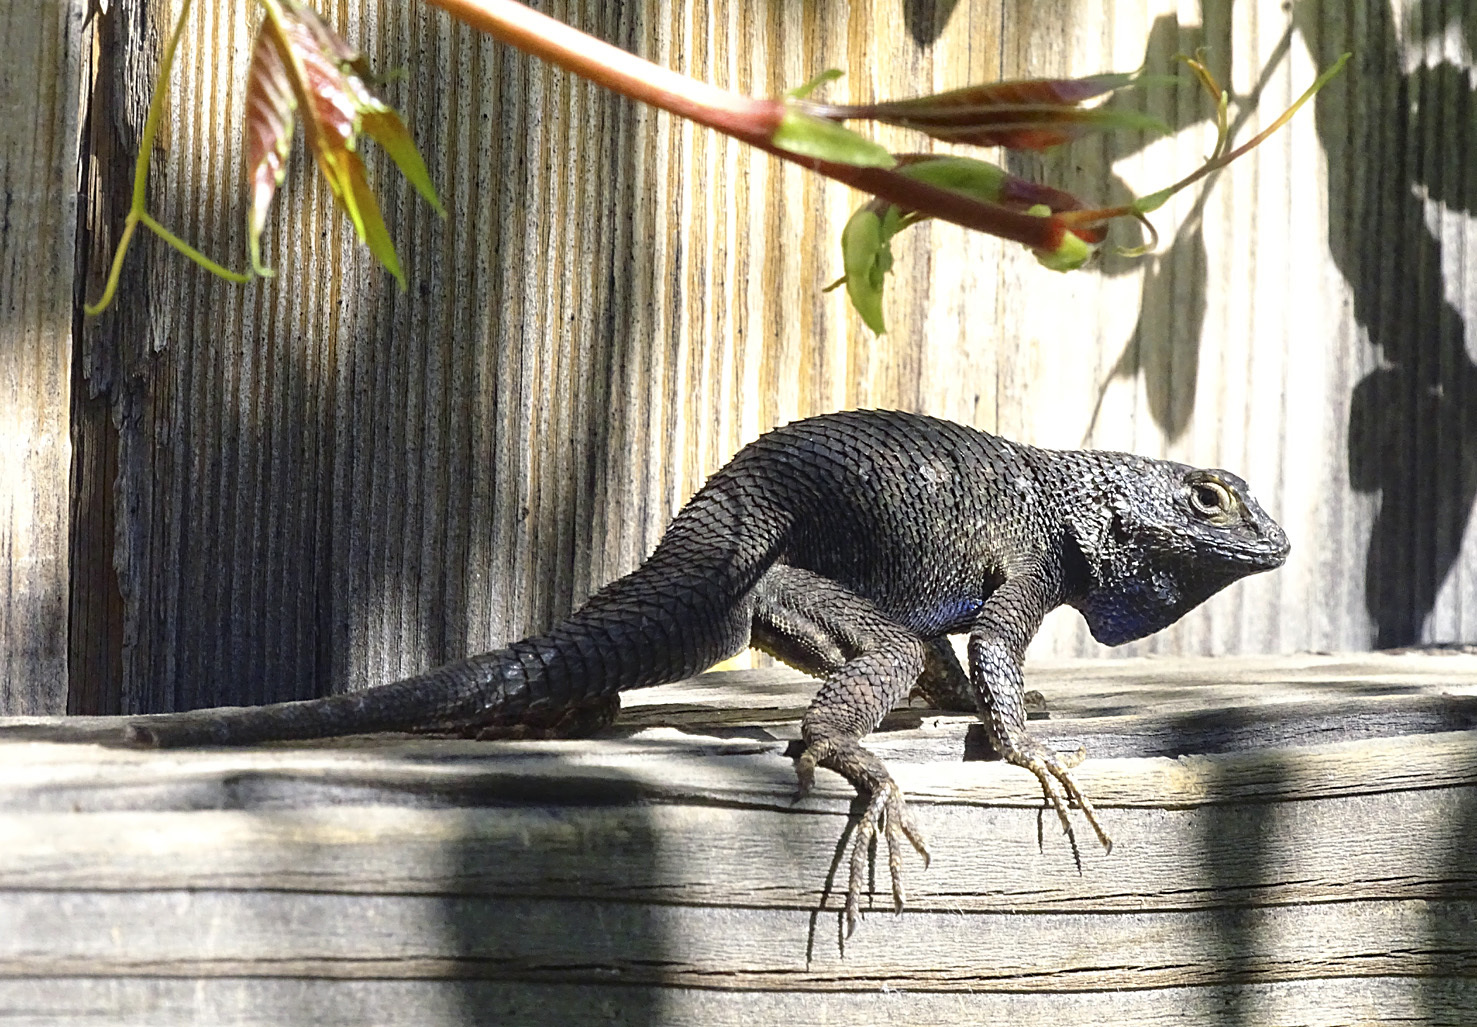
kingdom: Animalia
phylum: Chordata
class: Squamata
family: Phrynosomatidae
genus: Sceloporus
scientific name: Sceloporus occidentalis
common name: Western fence lizard
